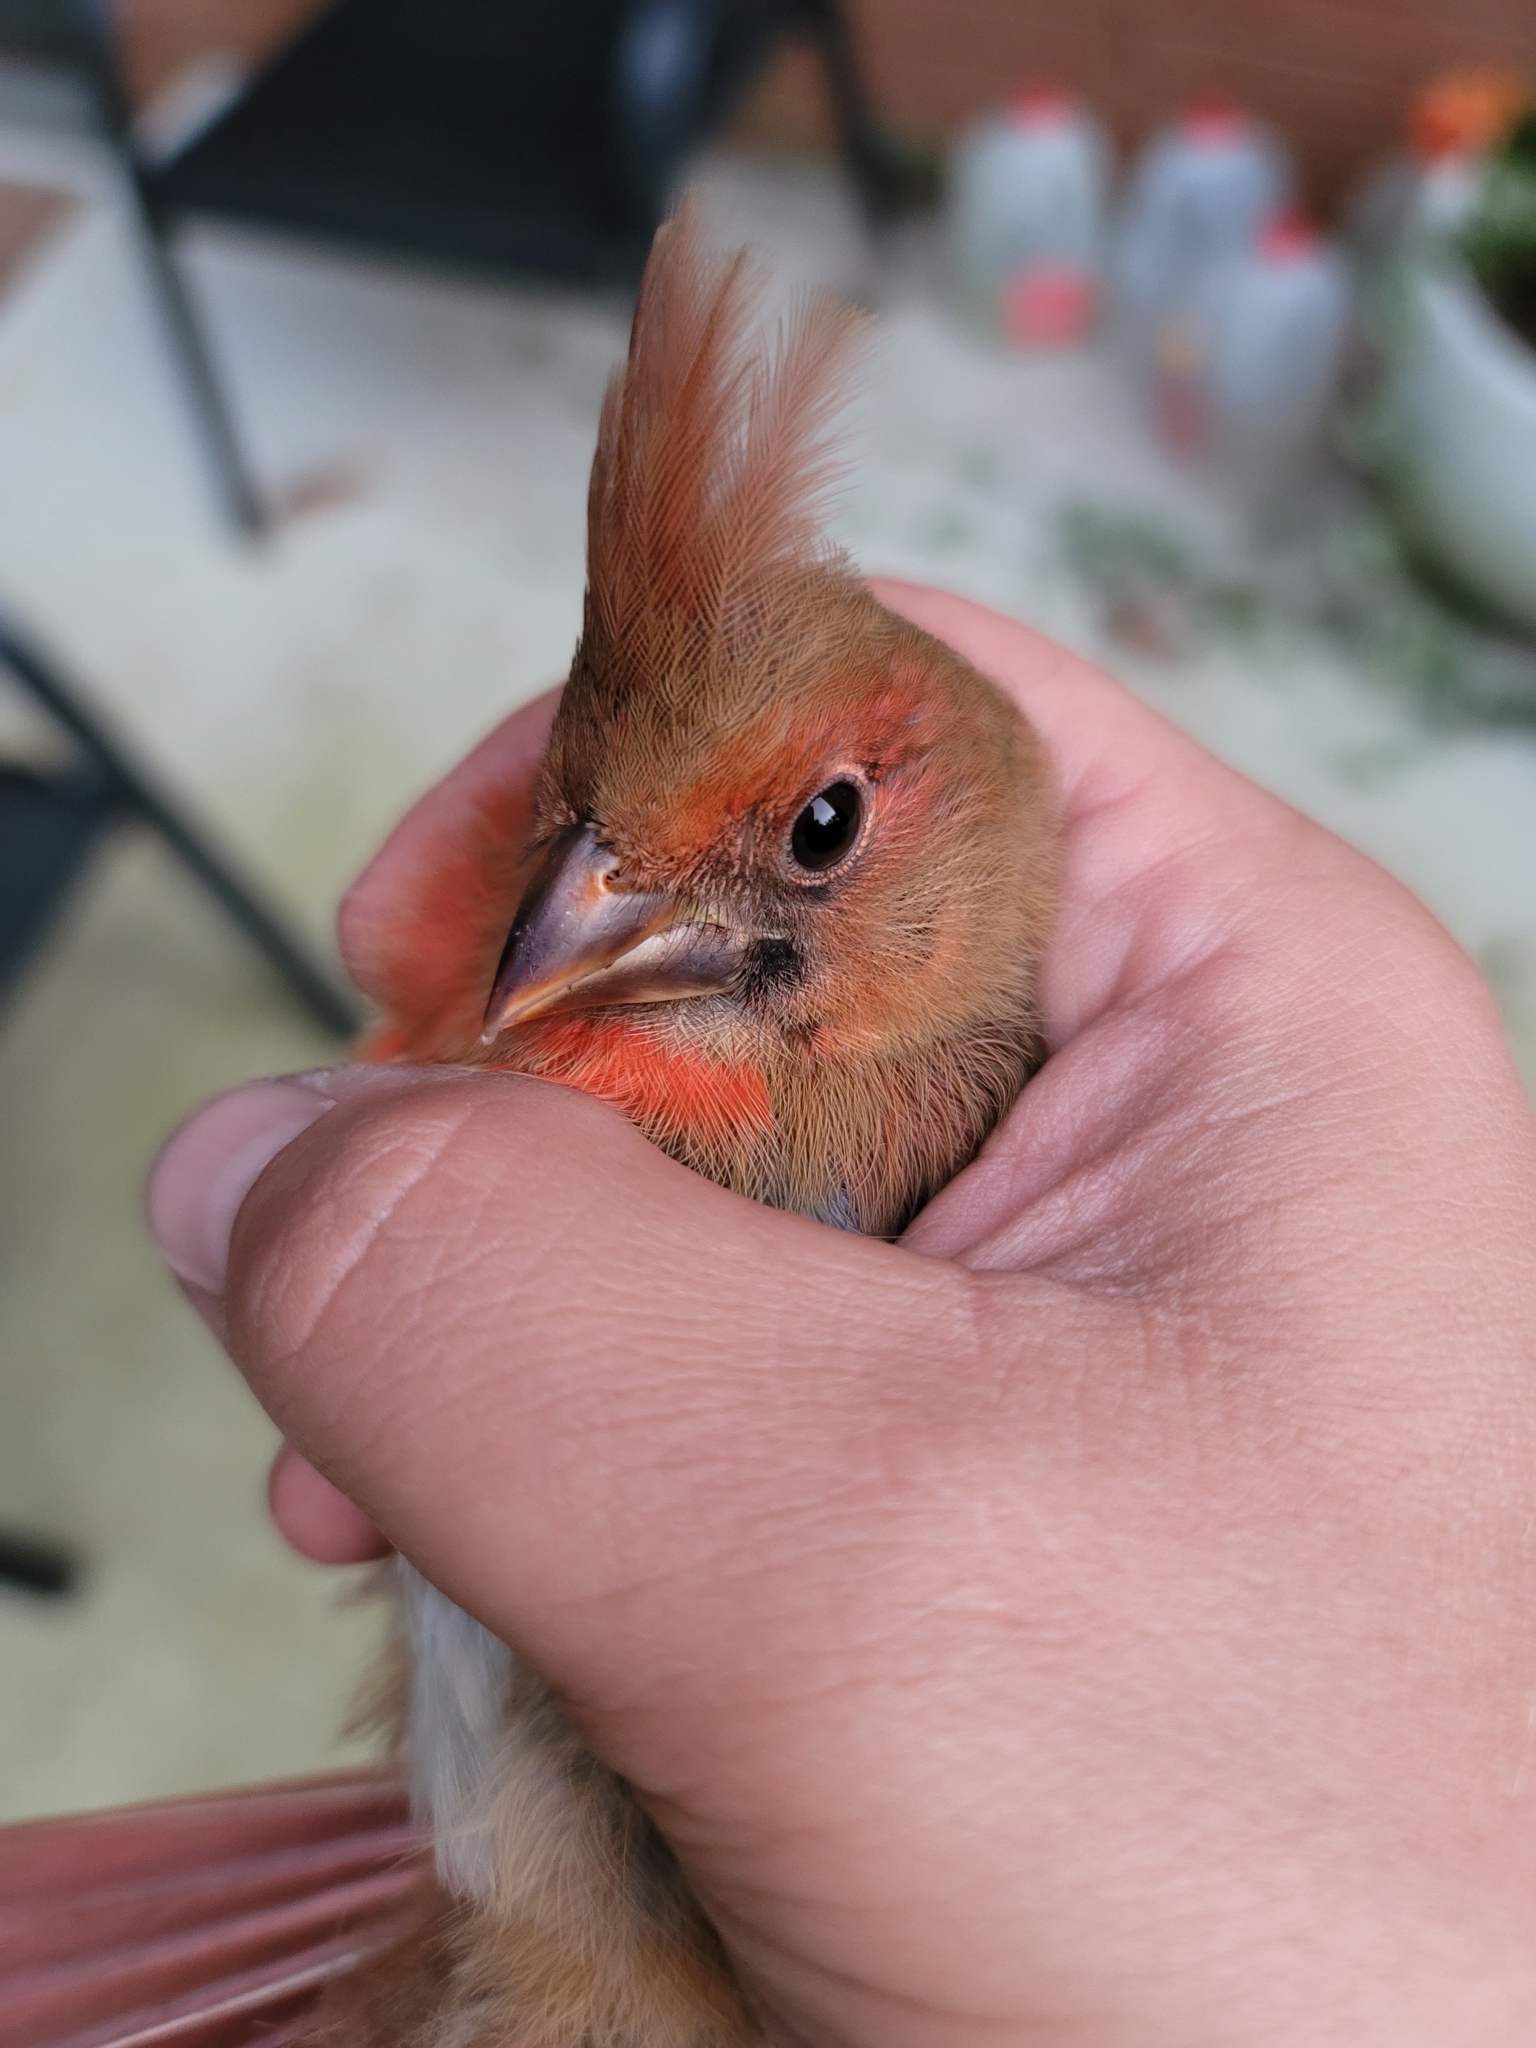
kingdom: Animalia
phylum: Chordata
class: Aves
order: Passeriformes
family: Cardinalidae
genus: Cardinalis
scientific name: Cardinalis cardinalis
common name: Northern cardinal
